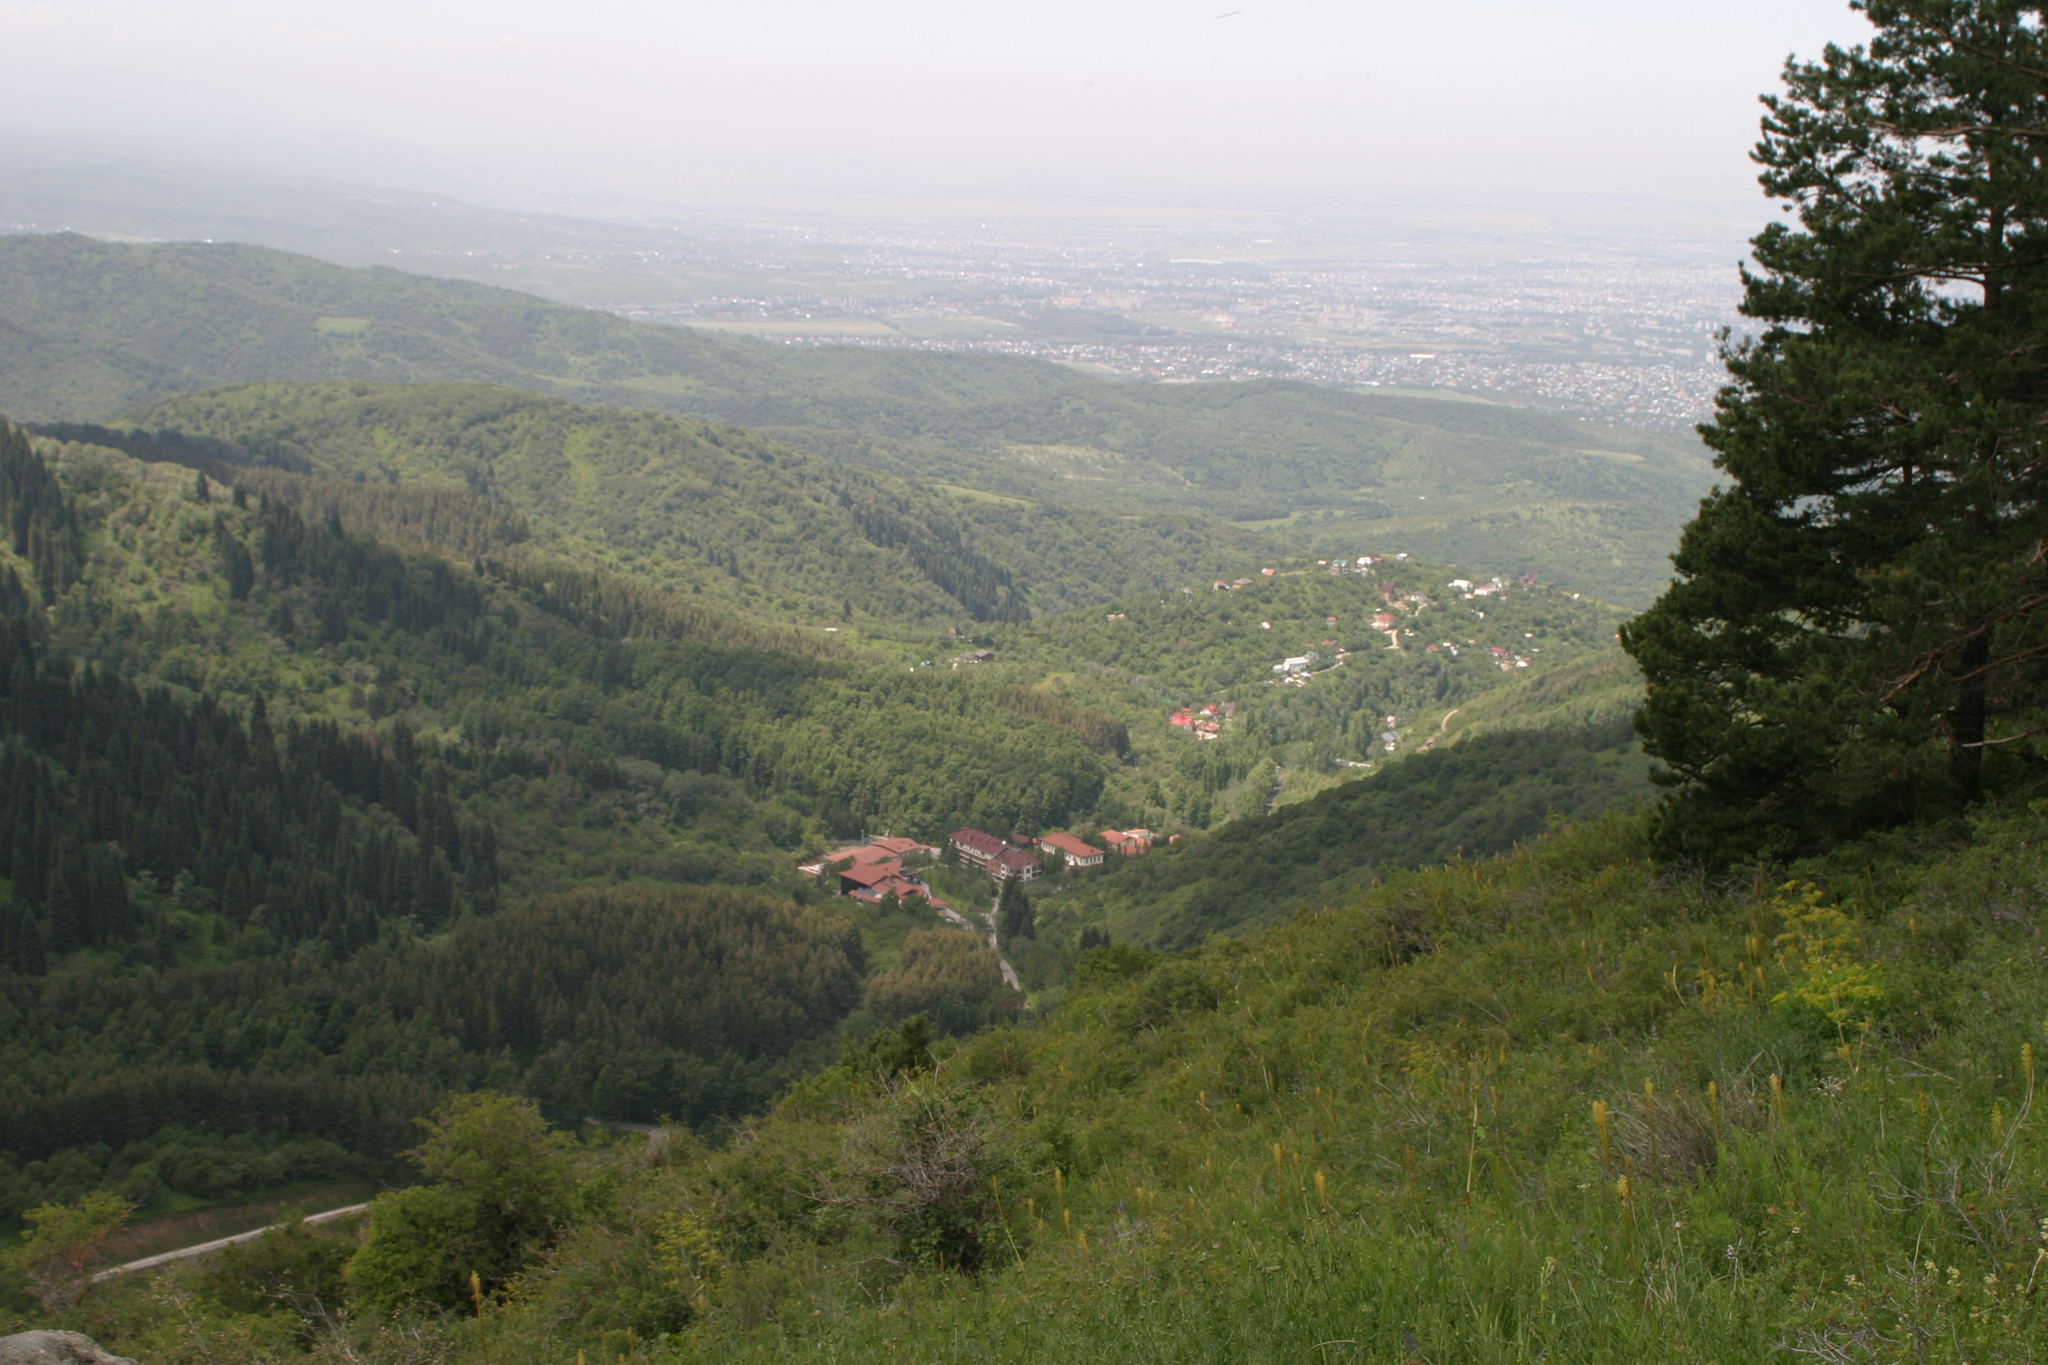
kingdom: Plantae
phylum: Tracheophyta
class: Pinopsida
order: Pinales
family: Pinaceae
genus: Pinus
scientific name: Pinus sylvestris
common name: Scots pine
